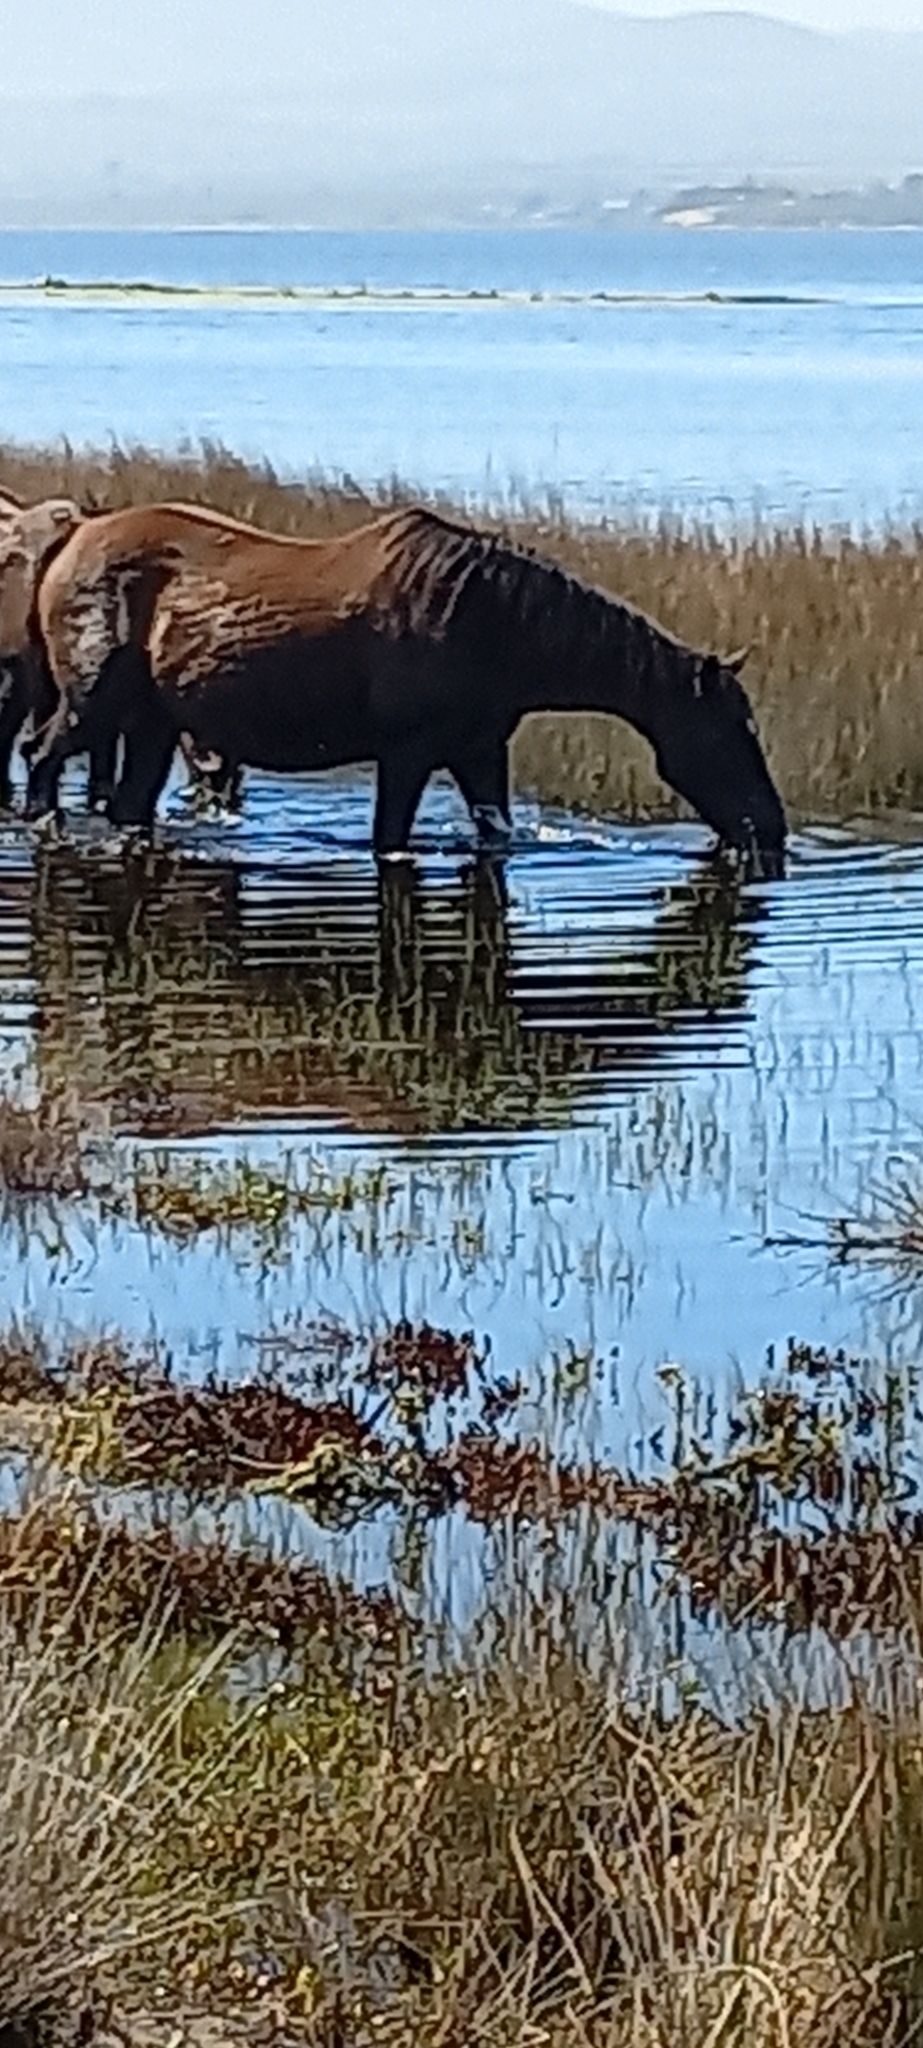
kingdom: Animalia
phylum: Chordata
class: Mammalia
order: Perissodactyla
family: Equidae
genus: Equus
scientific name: Equus caballus
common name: Horse
